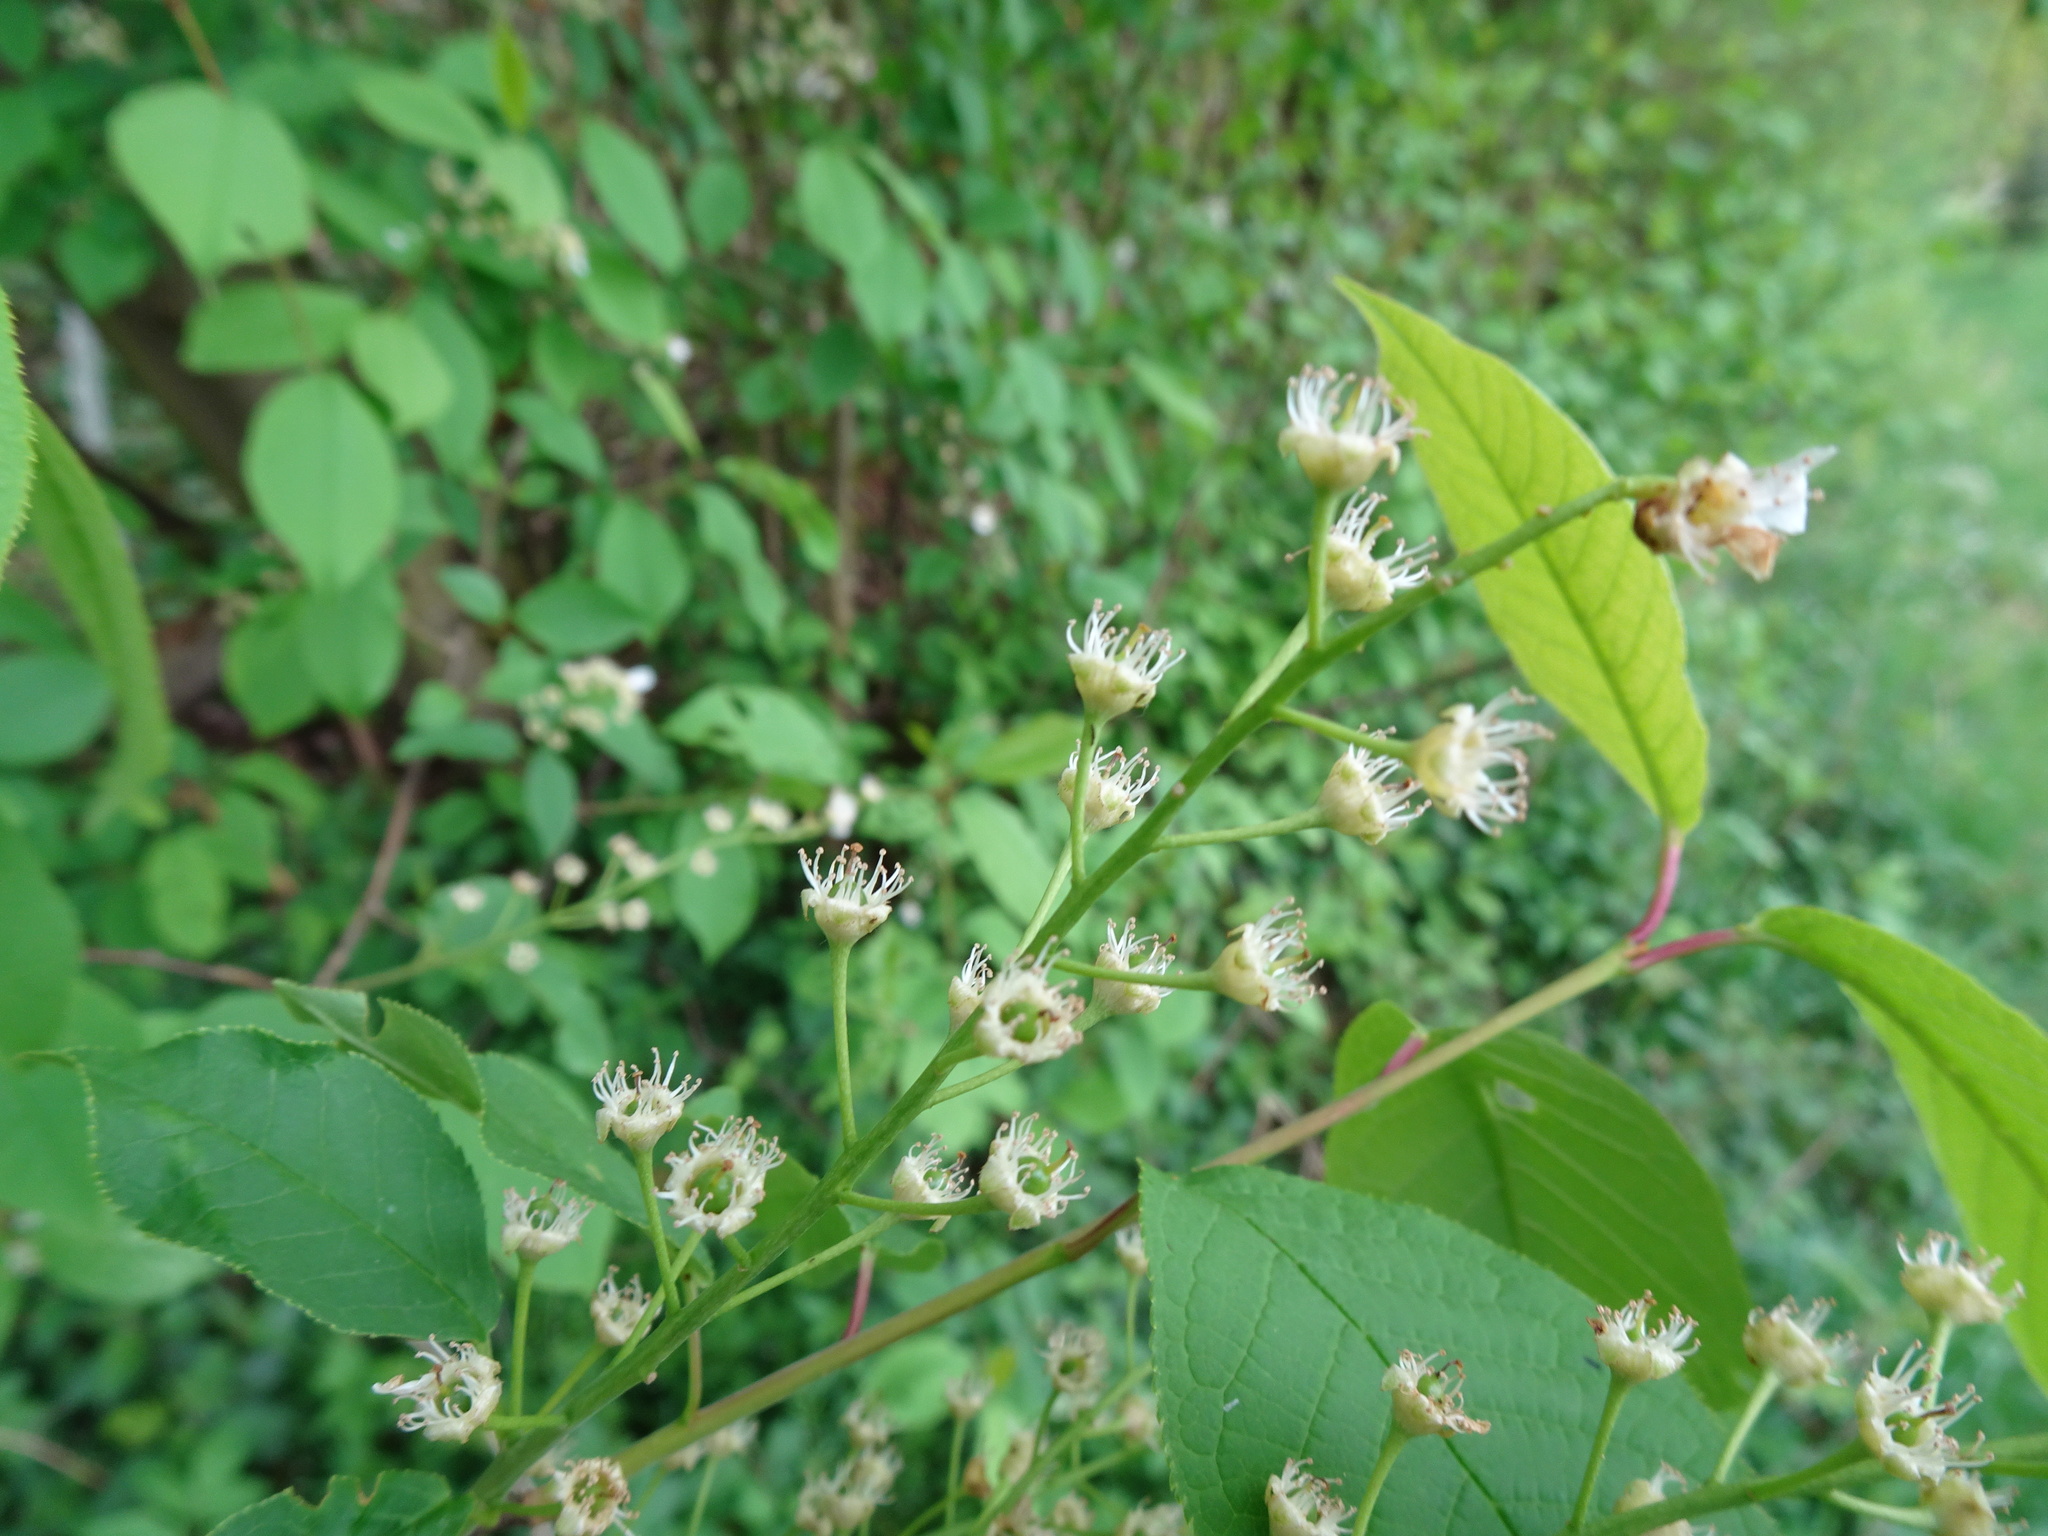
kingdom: Plantae
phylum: Tracheophyta
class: Magnoliopsida
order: Rosales
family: Rosaceae
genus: Prunus
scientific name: Prunus padus
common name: Bird cherry
